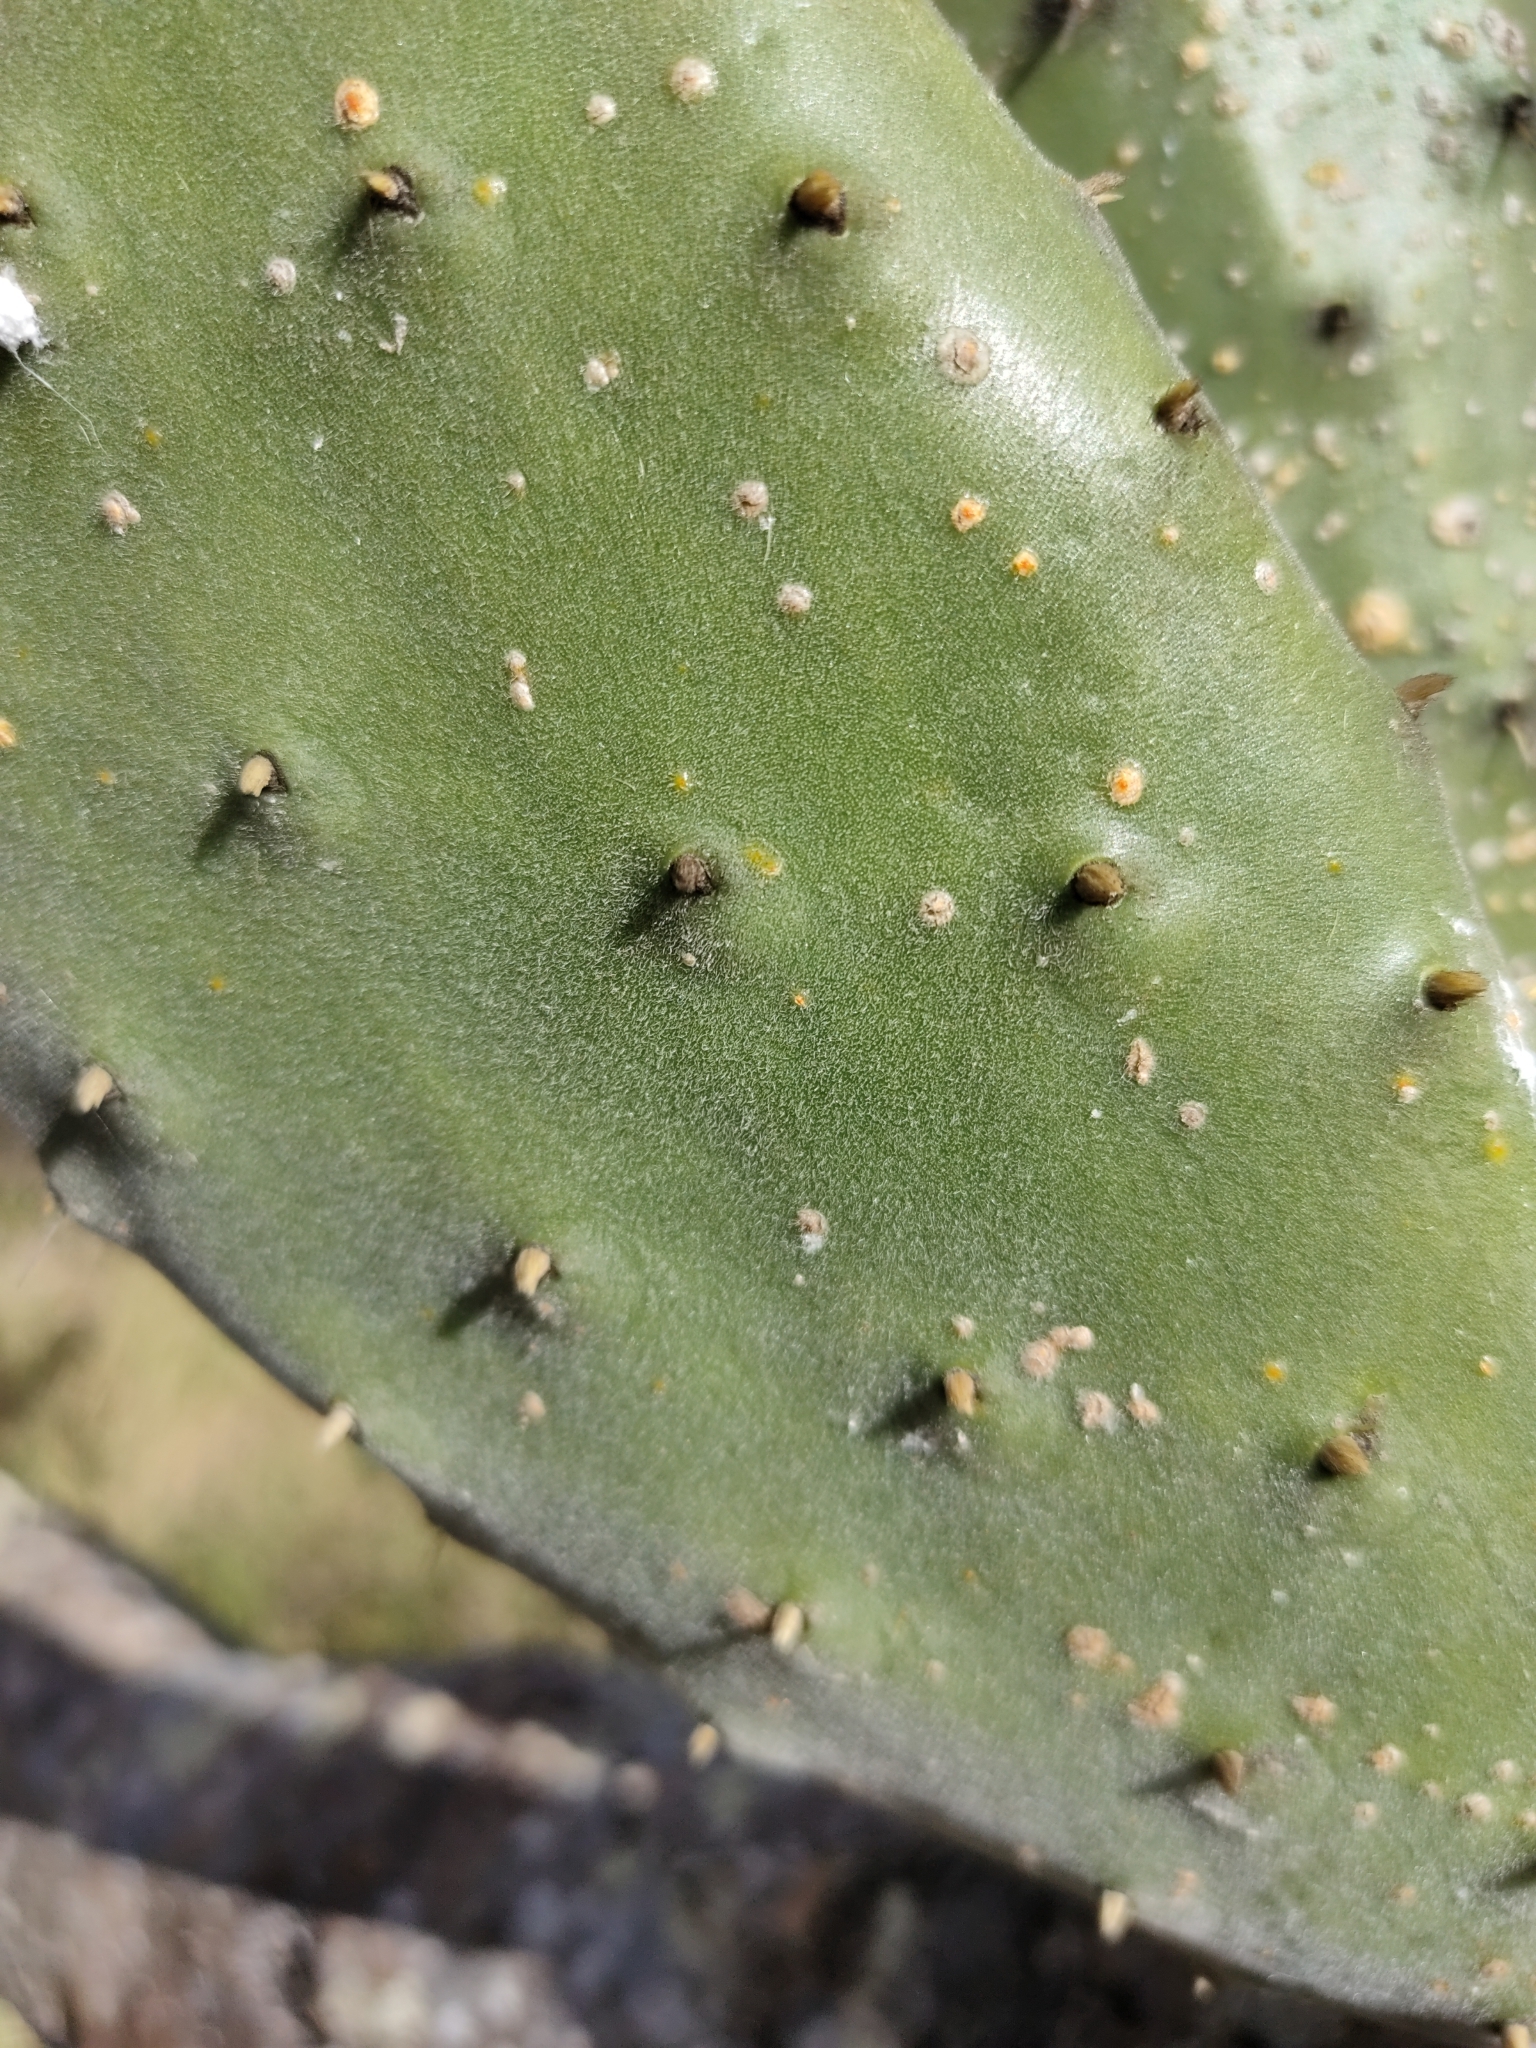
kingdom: Plantae
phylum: Tracheophyta
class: Magnoliopsida
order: Caryophyllales
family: Cactaceae
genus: Opuntia
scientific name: Opuntia tomentosa
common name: Woollyjoint pricklypear
